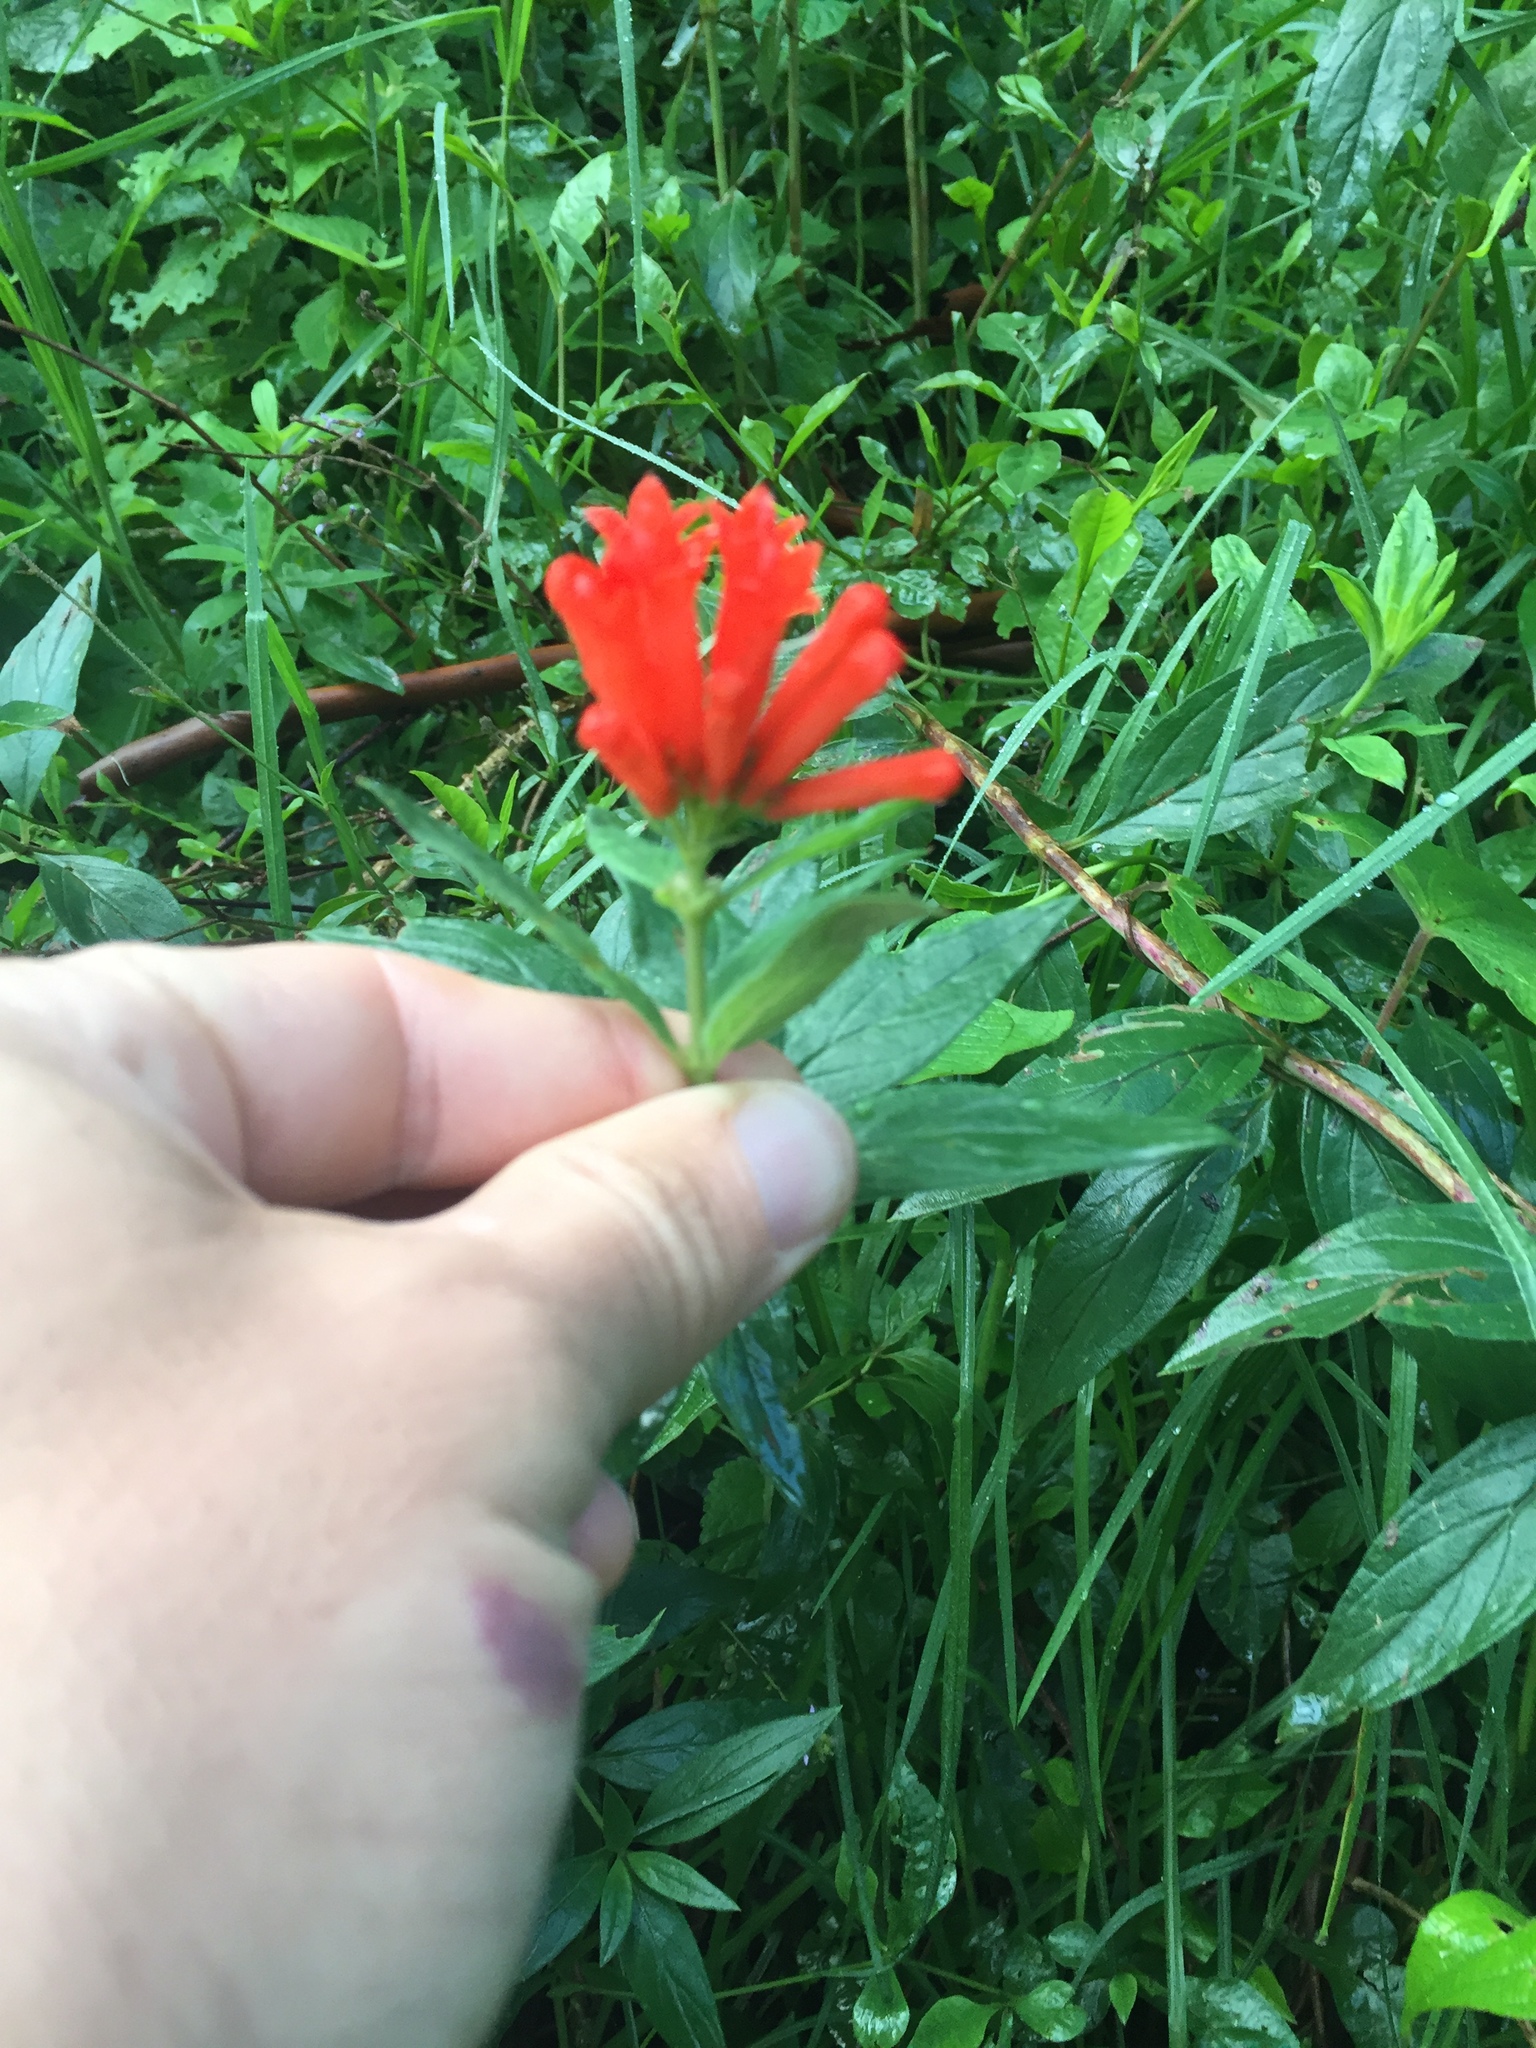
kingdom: Plantae
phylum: Tracheophyta
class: Magnoliopsida
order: Gentianales
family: Rubiaceae
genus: Bouvardia
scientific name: Bouvardia ternifolia
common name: Scarlet bouvardia
